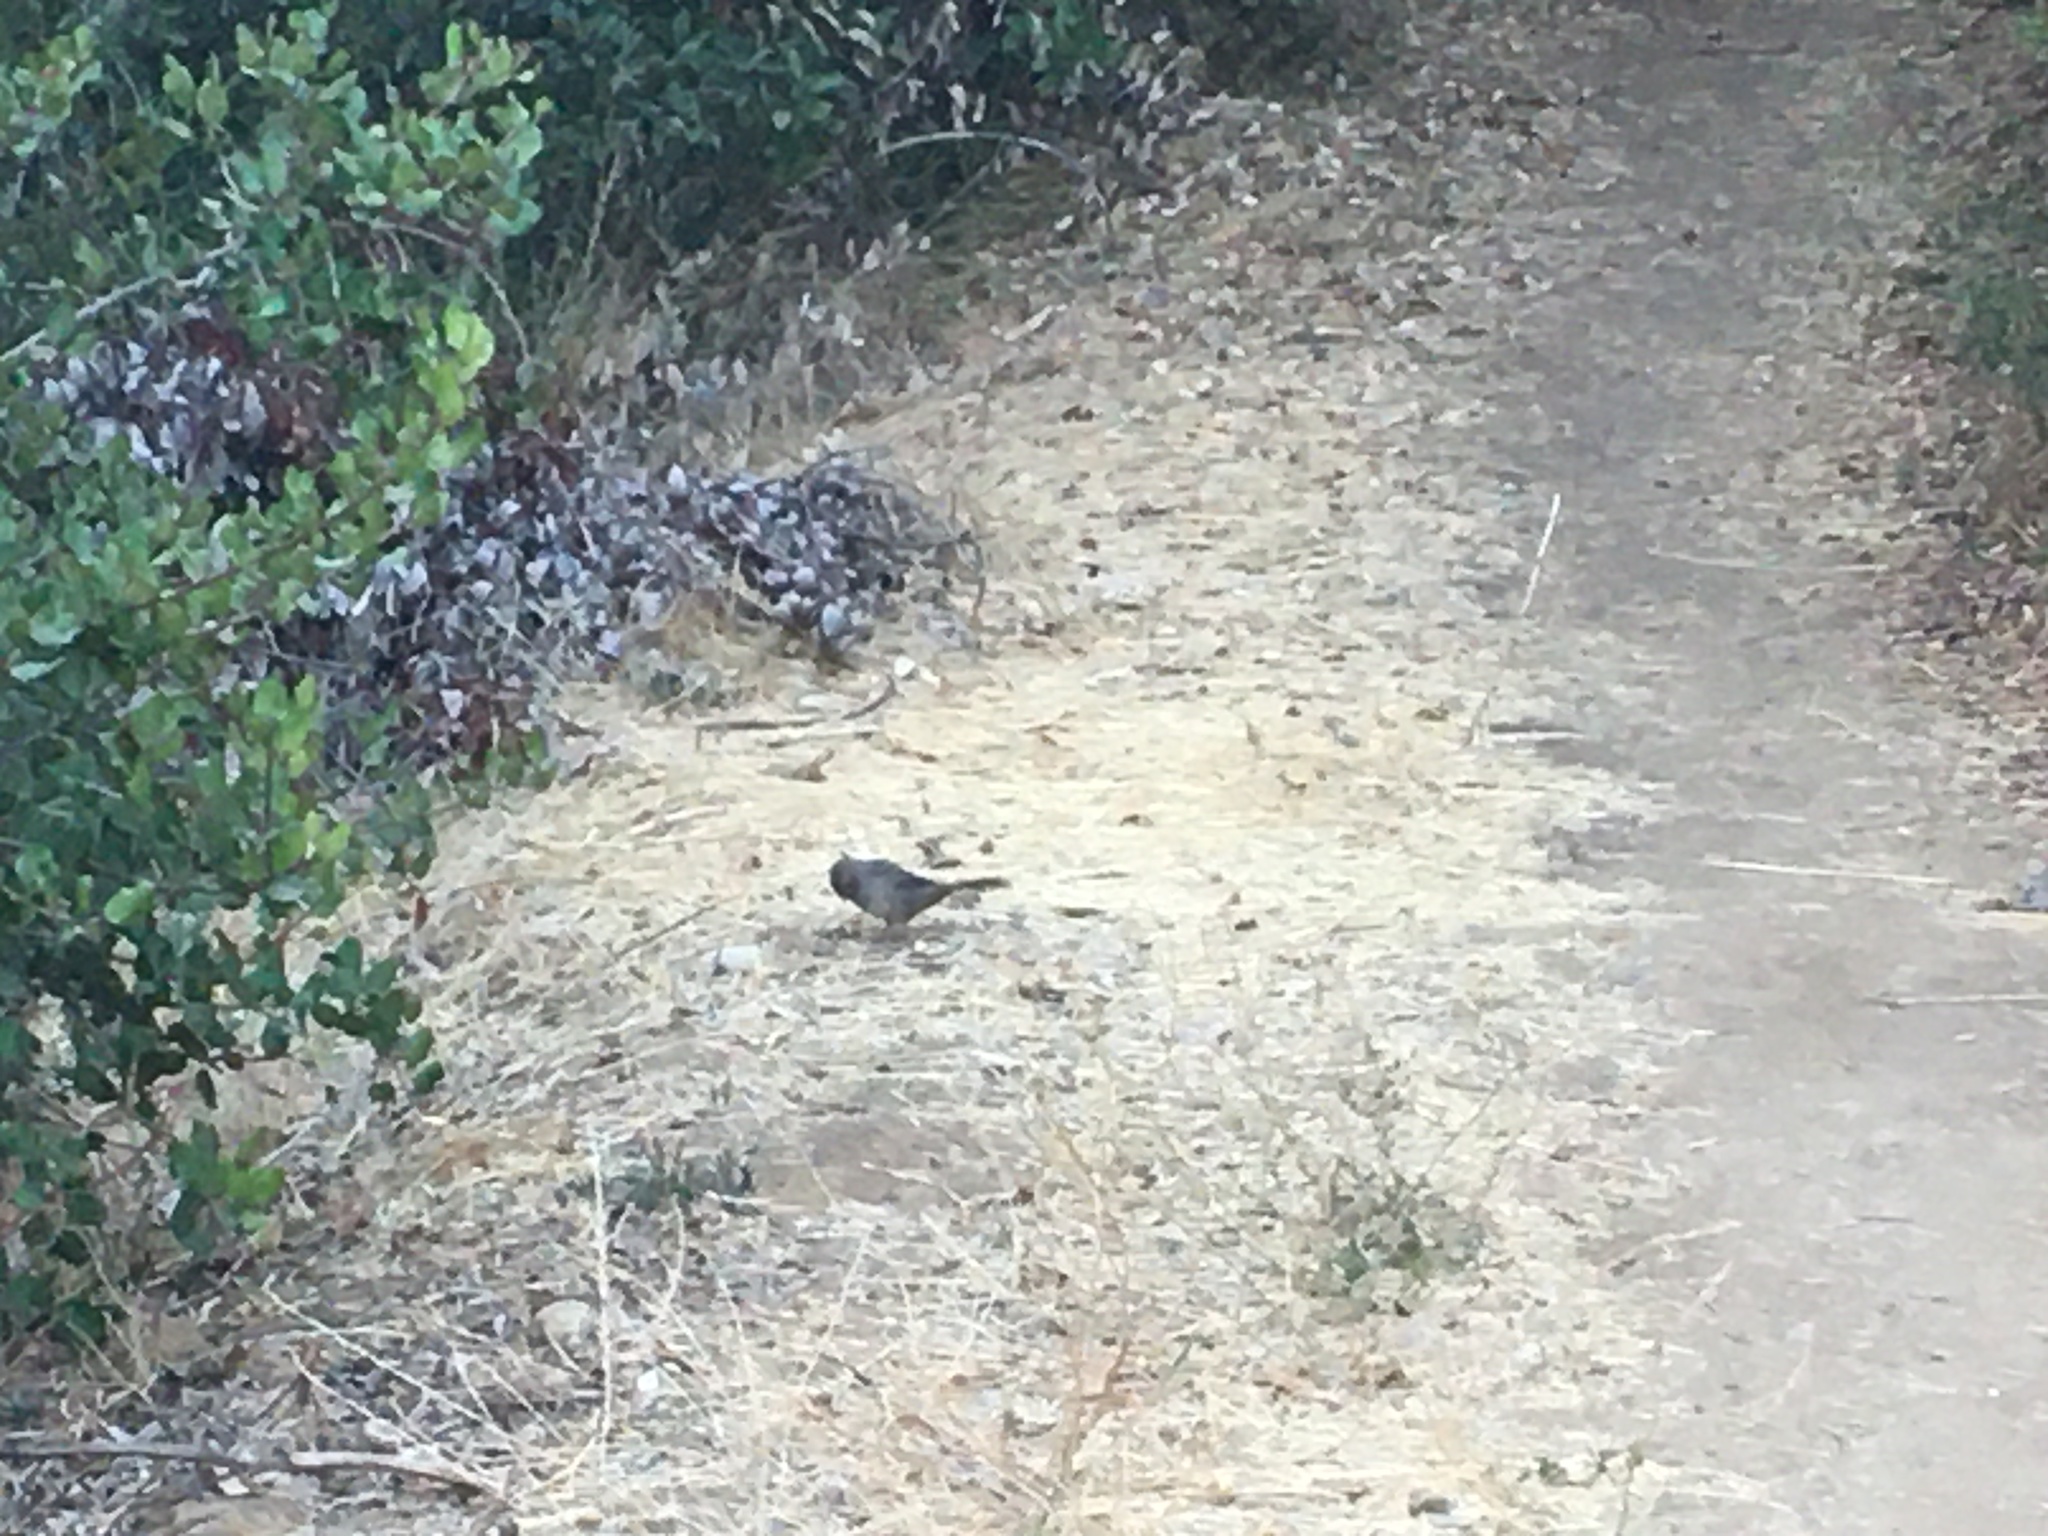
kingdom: Animalia
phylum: Chordata
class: Aves
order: Passeriformes
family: Passerellidae
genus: Melozone
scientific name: Melozone crissalis
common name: California towhee
